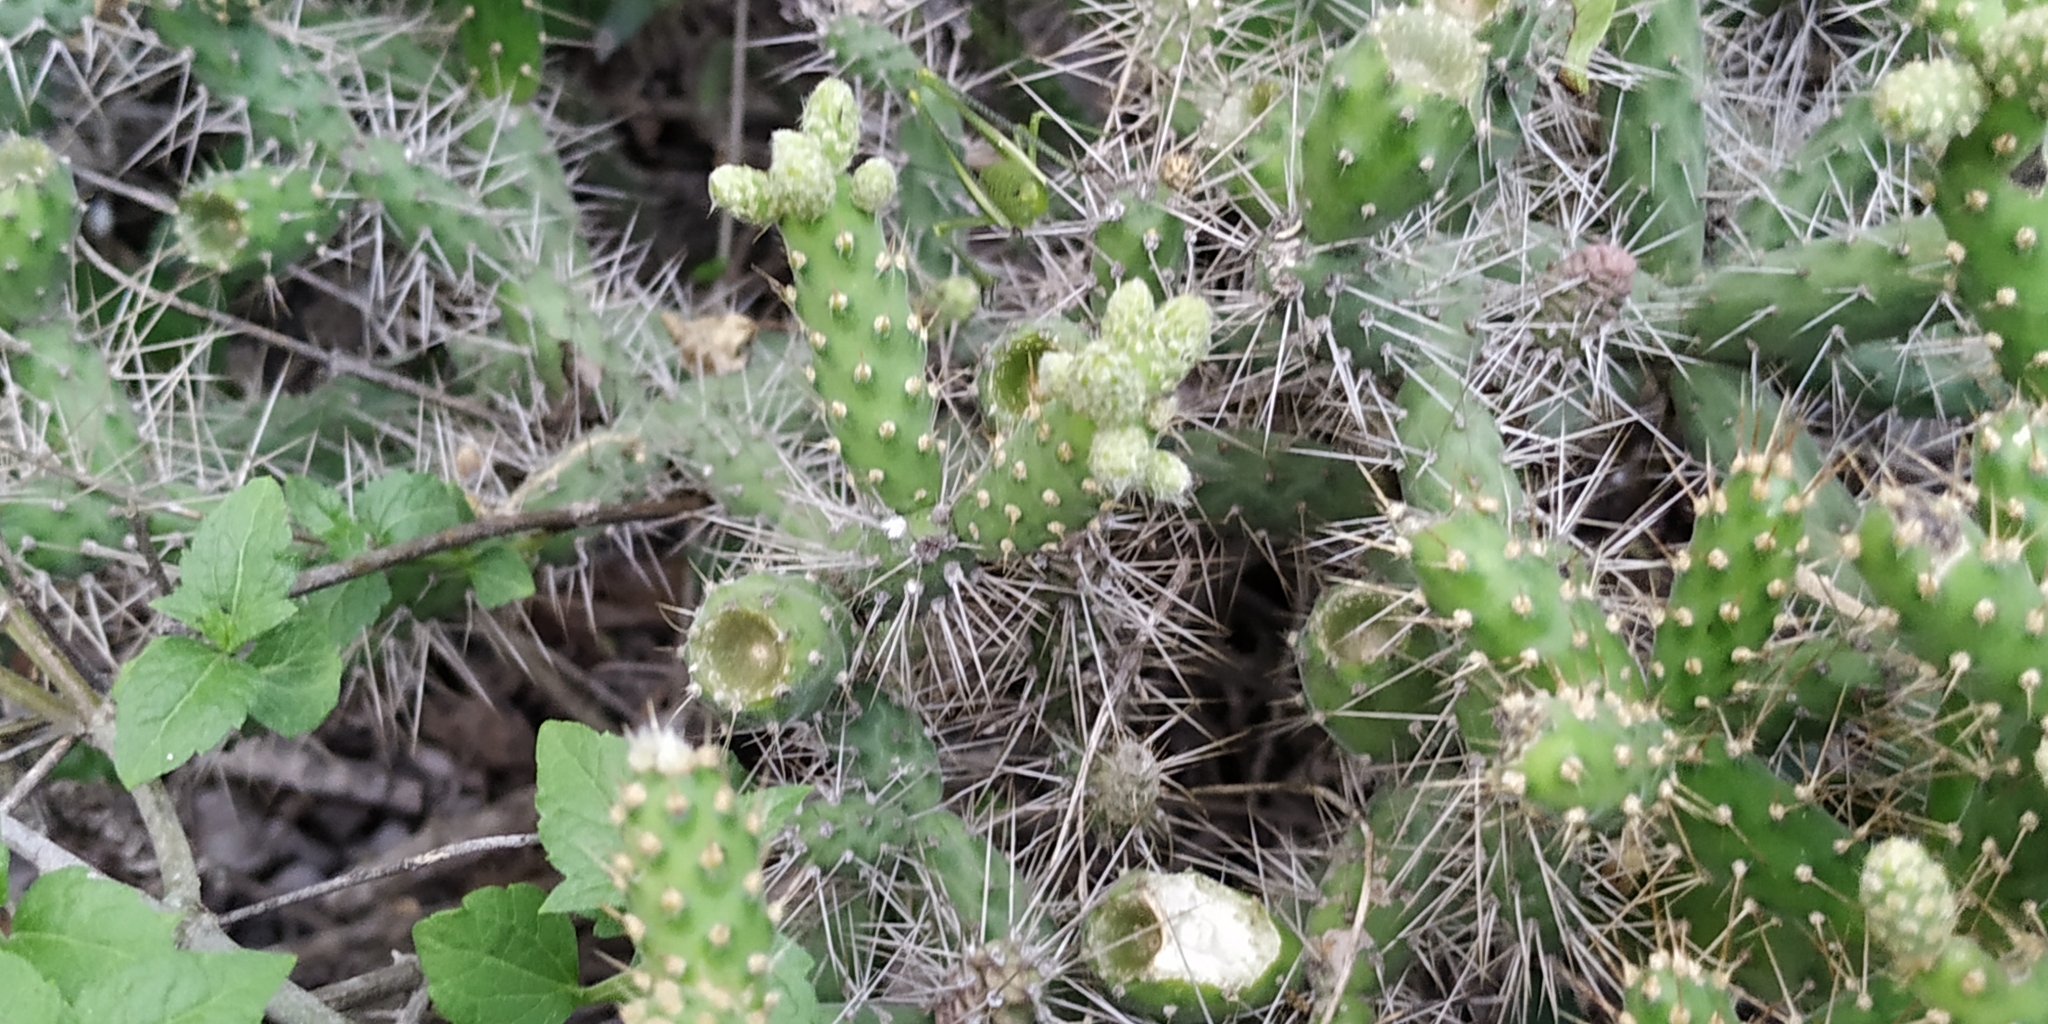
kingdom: Plantae
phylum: Tracheophyta
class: Magnoliopsida
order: Caryophyllales
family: Cactaceae
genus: Opuntia
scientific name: Opuntia pubescens
